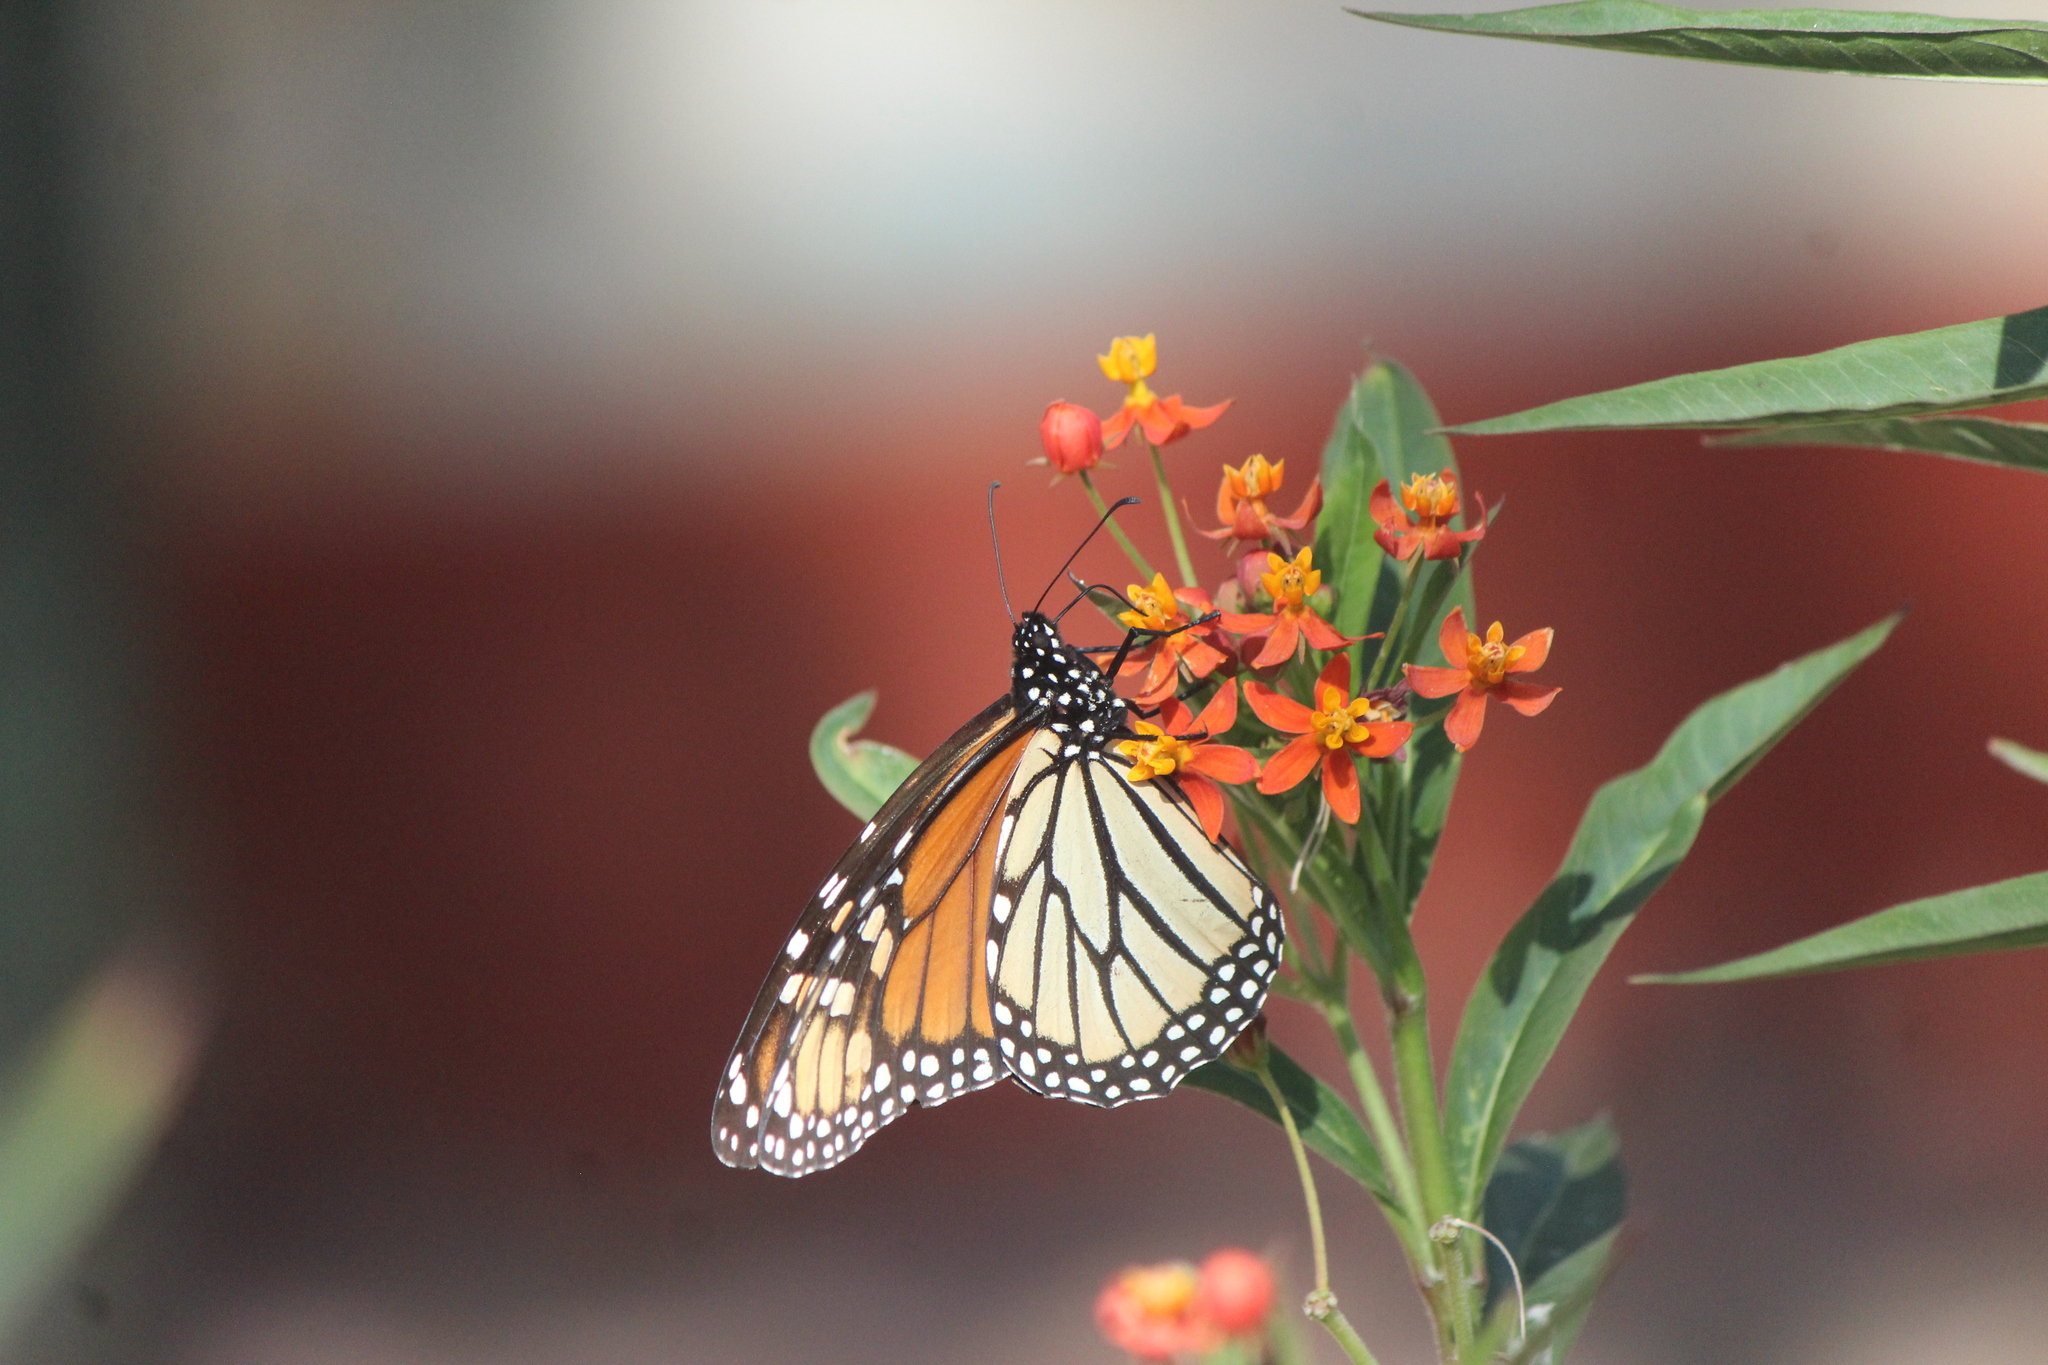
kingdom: Animalia
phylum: Arthropoda
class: Insecta
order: Lepidoptera
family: Nymphalidae
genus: Danaus
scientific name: Danaus plexippus
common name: Monarch
